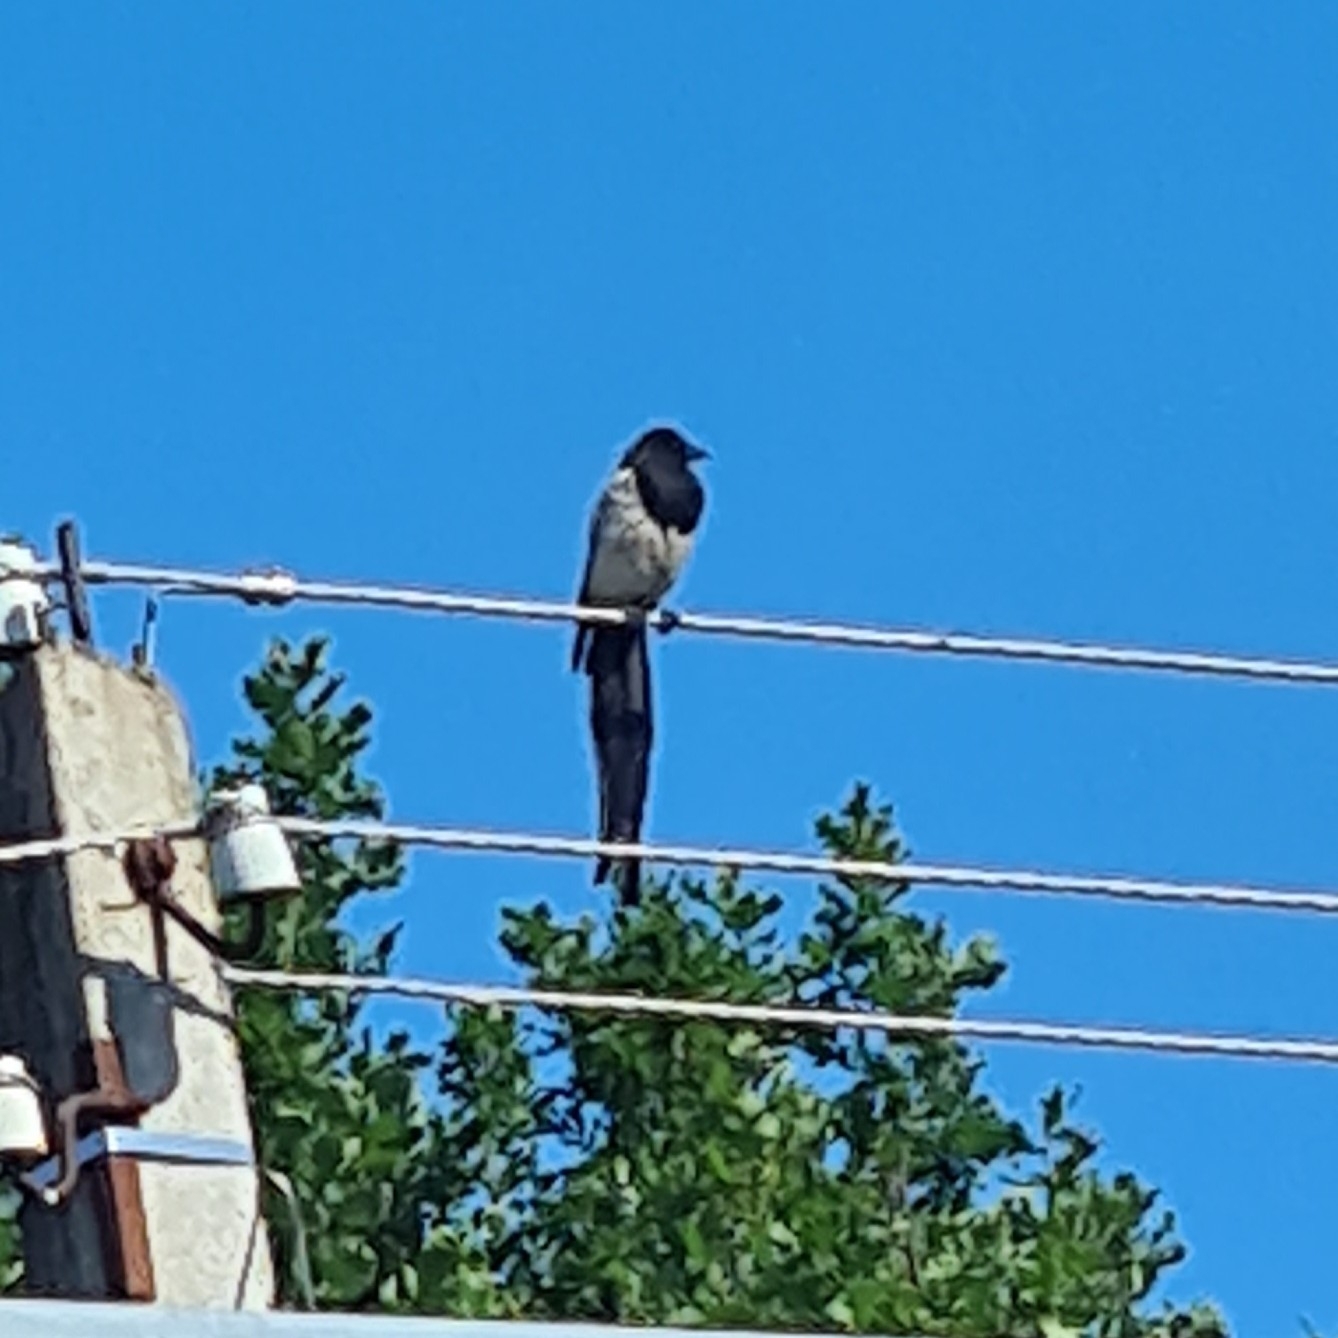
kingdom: Animalia
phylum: Chordata
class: Aves
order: Passeriformes
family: Corvidae
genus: Pica
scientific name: Pica pica
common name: Eurasian magpie
